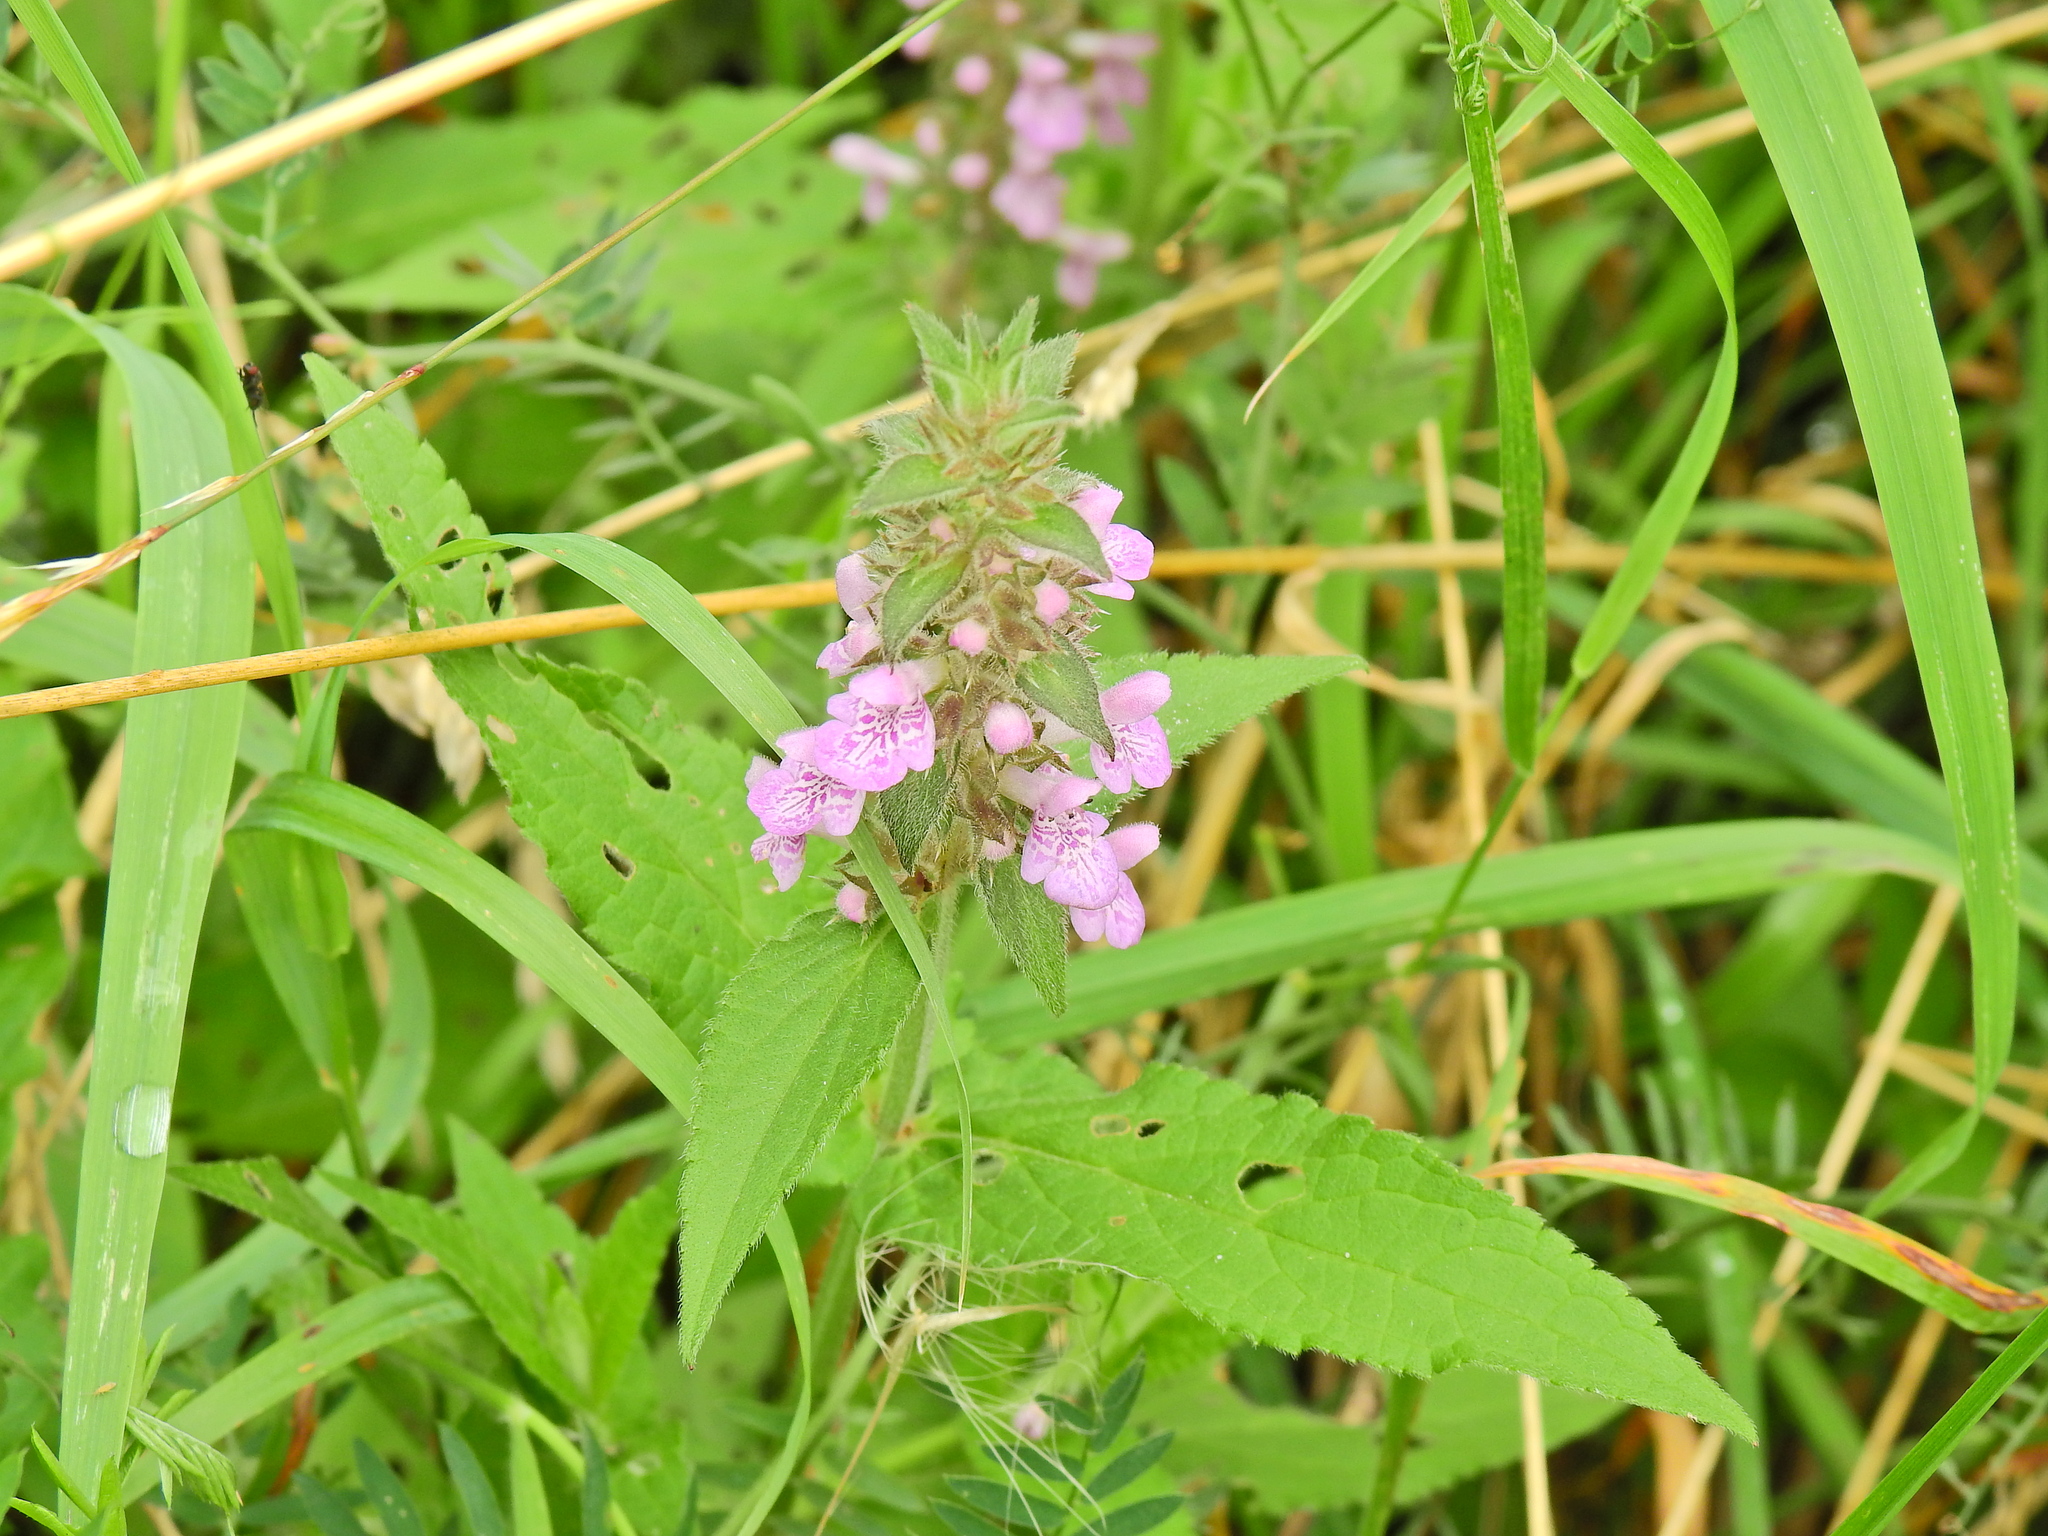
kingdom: Plantae
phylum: Tracheophyta
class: Magnoliopsida
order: Lamiales
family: Lamiaceae
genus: Stachys
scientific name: Stachys palustris
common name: Marsh woundwort
